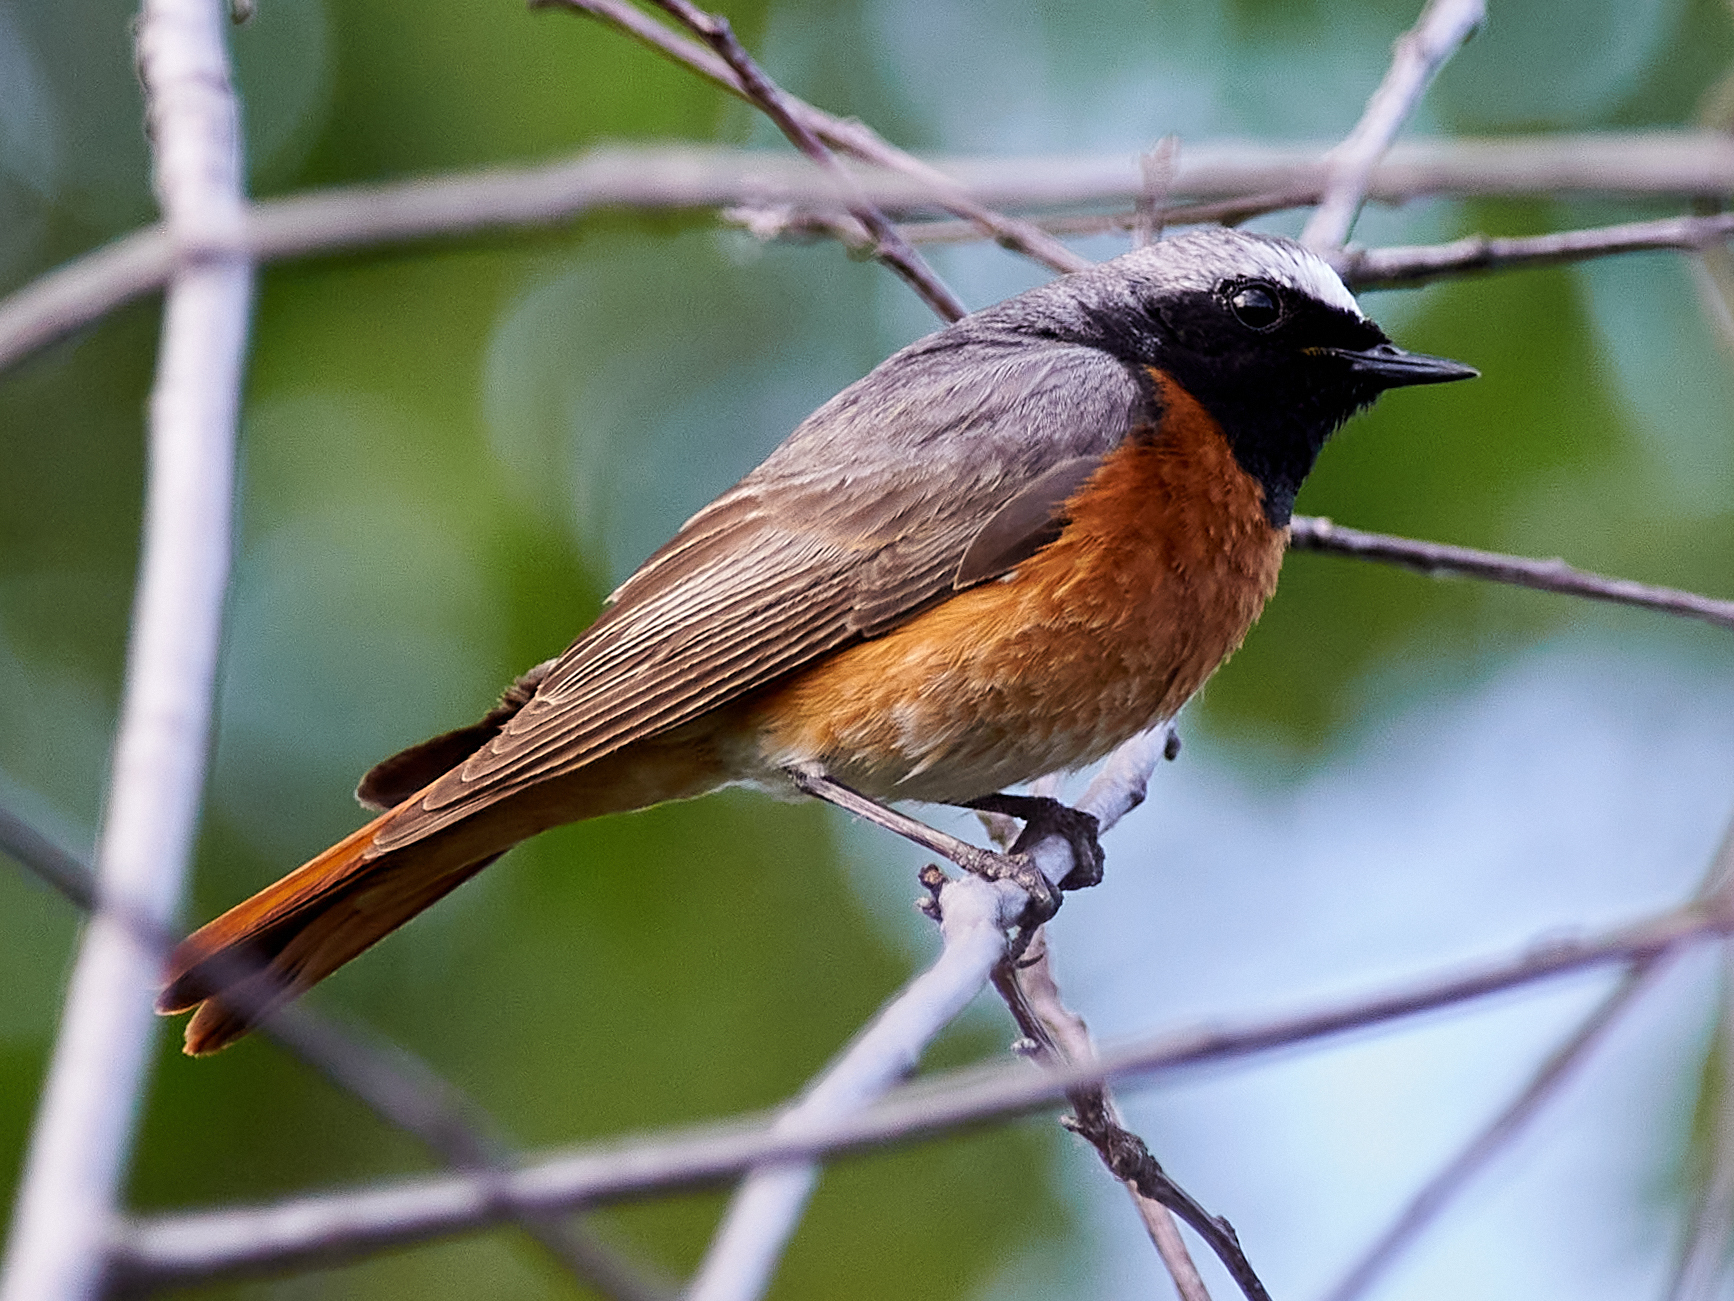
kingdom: Animalia
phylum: Chordata
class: Aves
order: Passeriformes
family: Muscicapidae
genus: Phoenicurus
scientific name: Phoenicurus phoenicurus
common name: Common redstart
